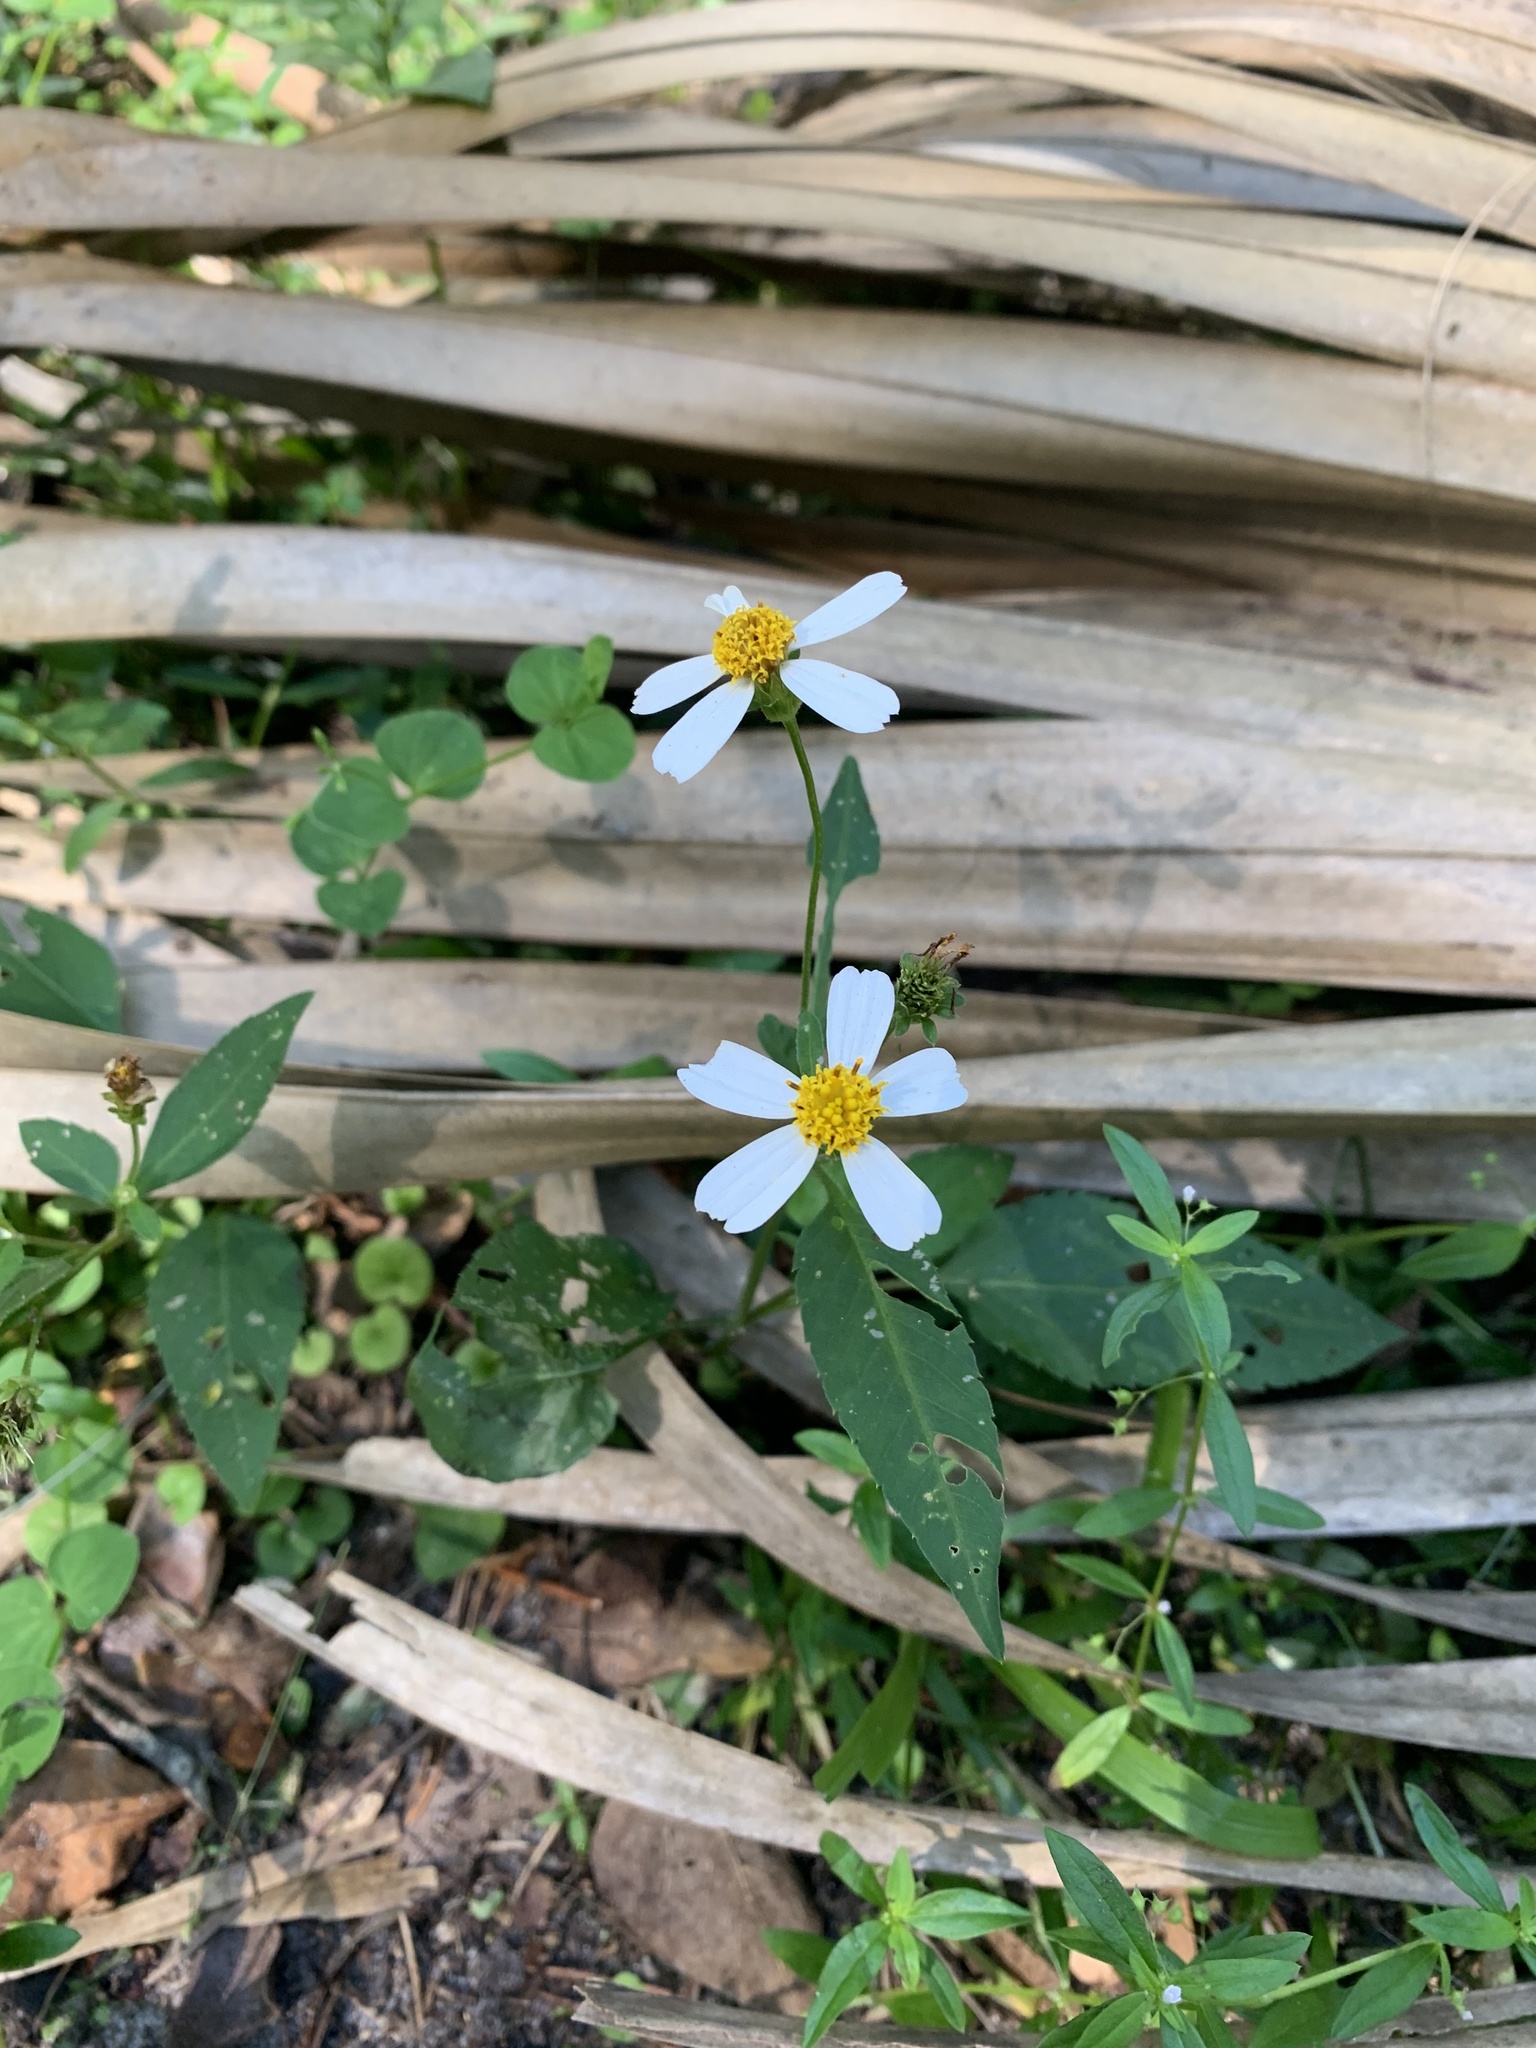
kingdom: Plantae
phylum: Tracheophyta
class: Magnoliopsida
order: Asterales
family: Asteraceae
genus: Bidens
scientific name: Bidens alba
